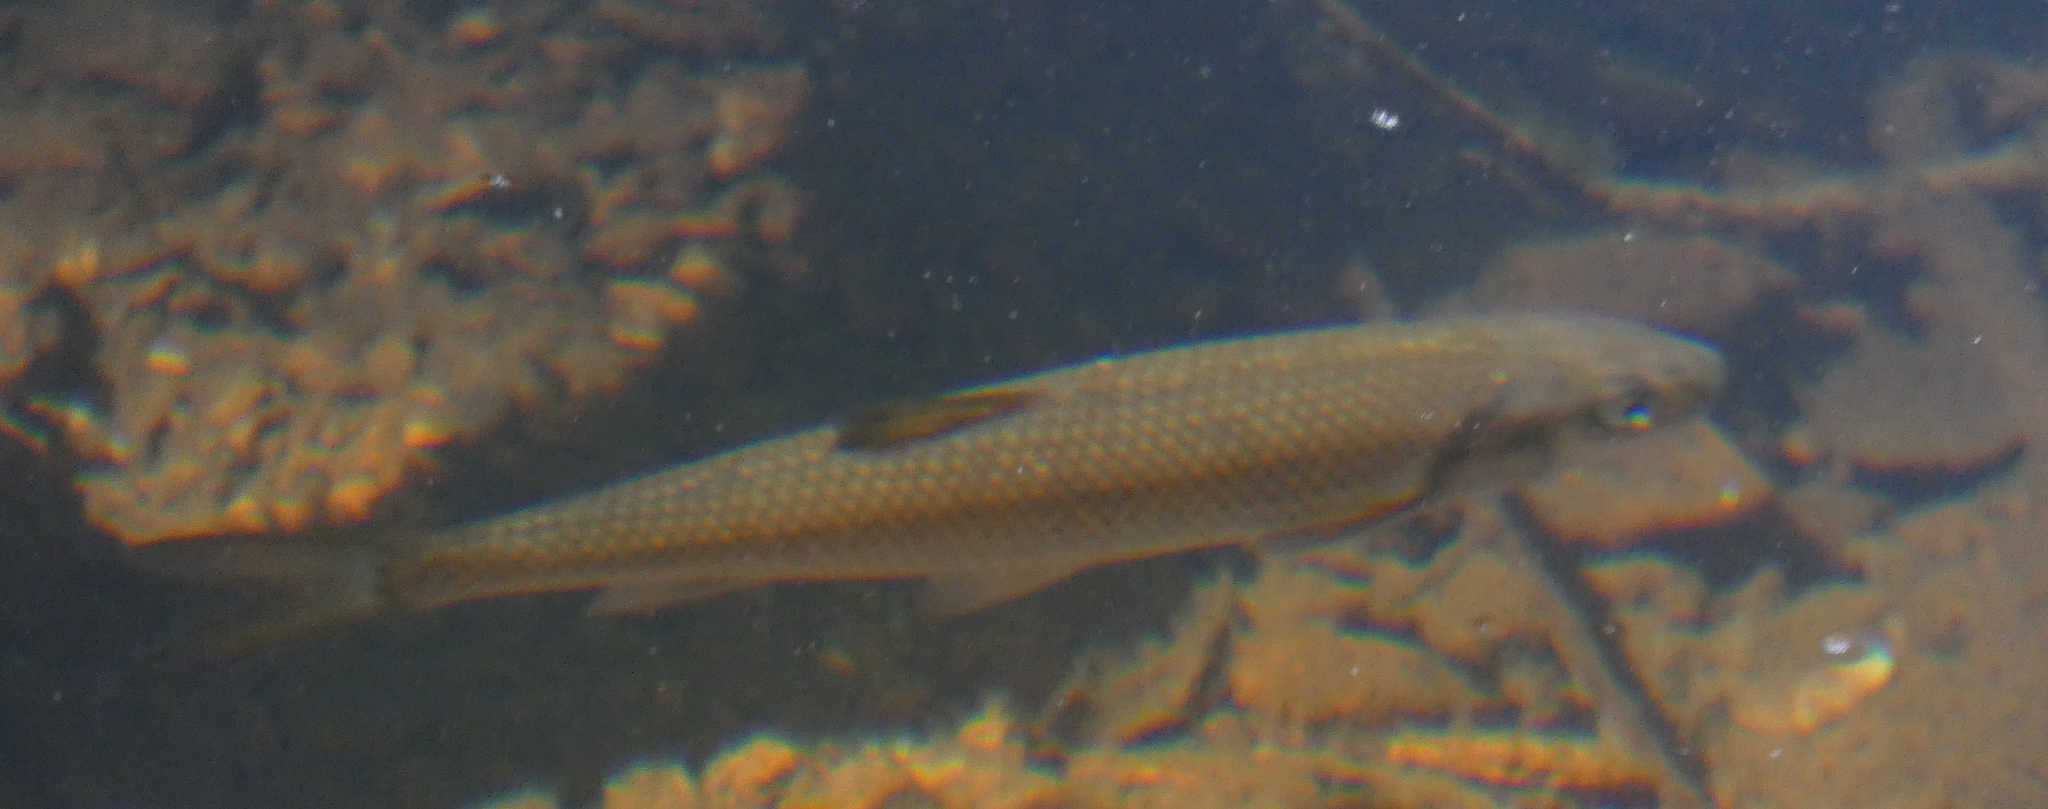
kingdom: Animalia
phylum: Chordata
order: Cypriniformes
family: Cyprinidae
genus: Semotilus
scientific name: Semotilus corporalis
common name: Fallfish
